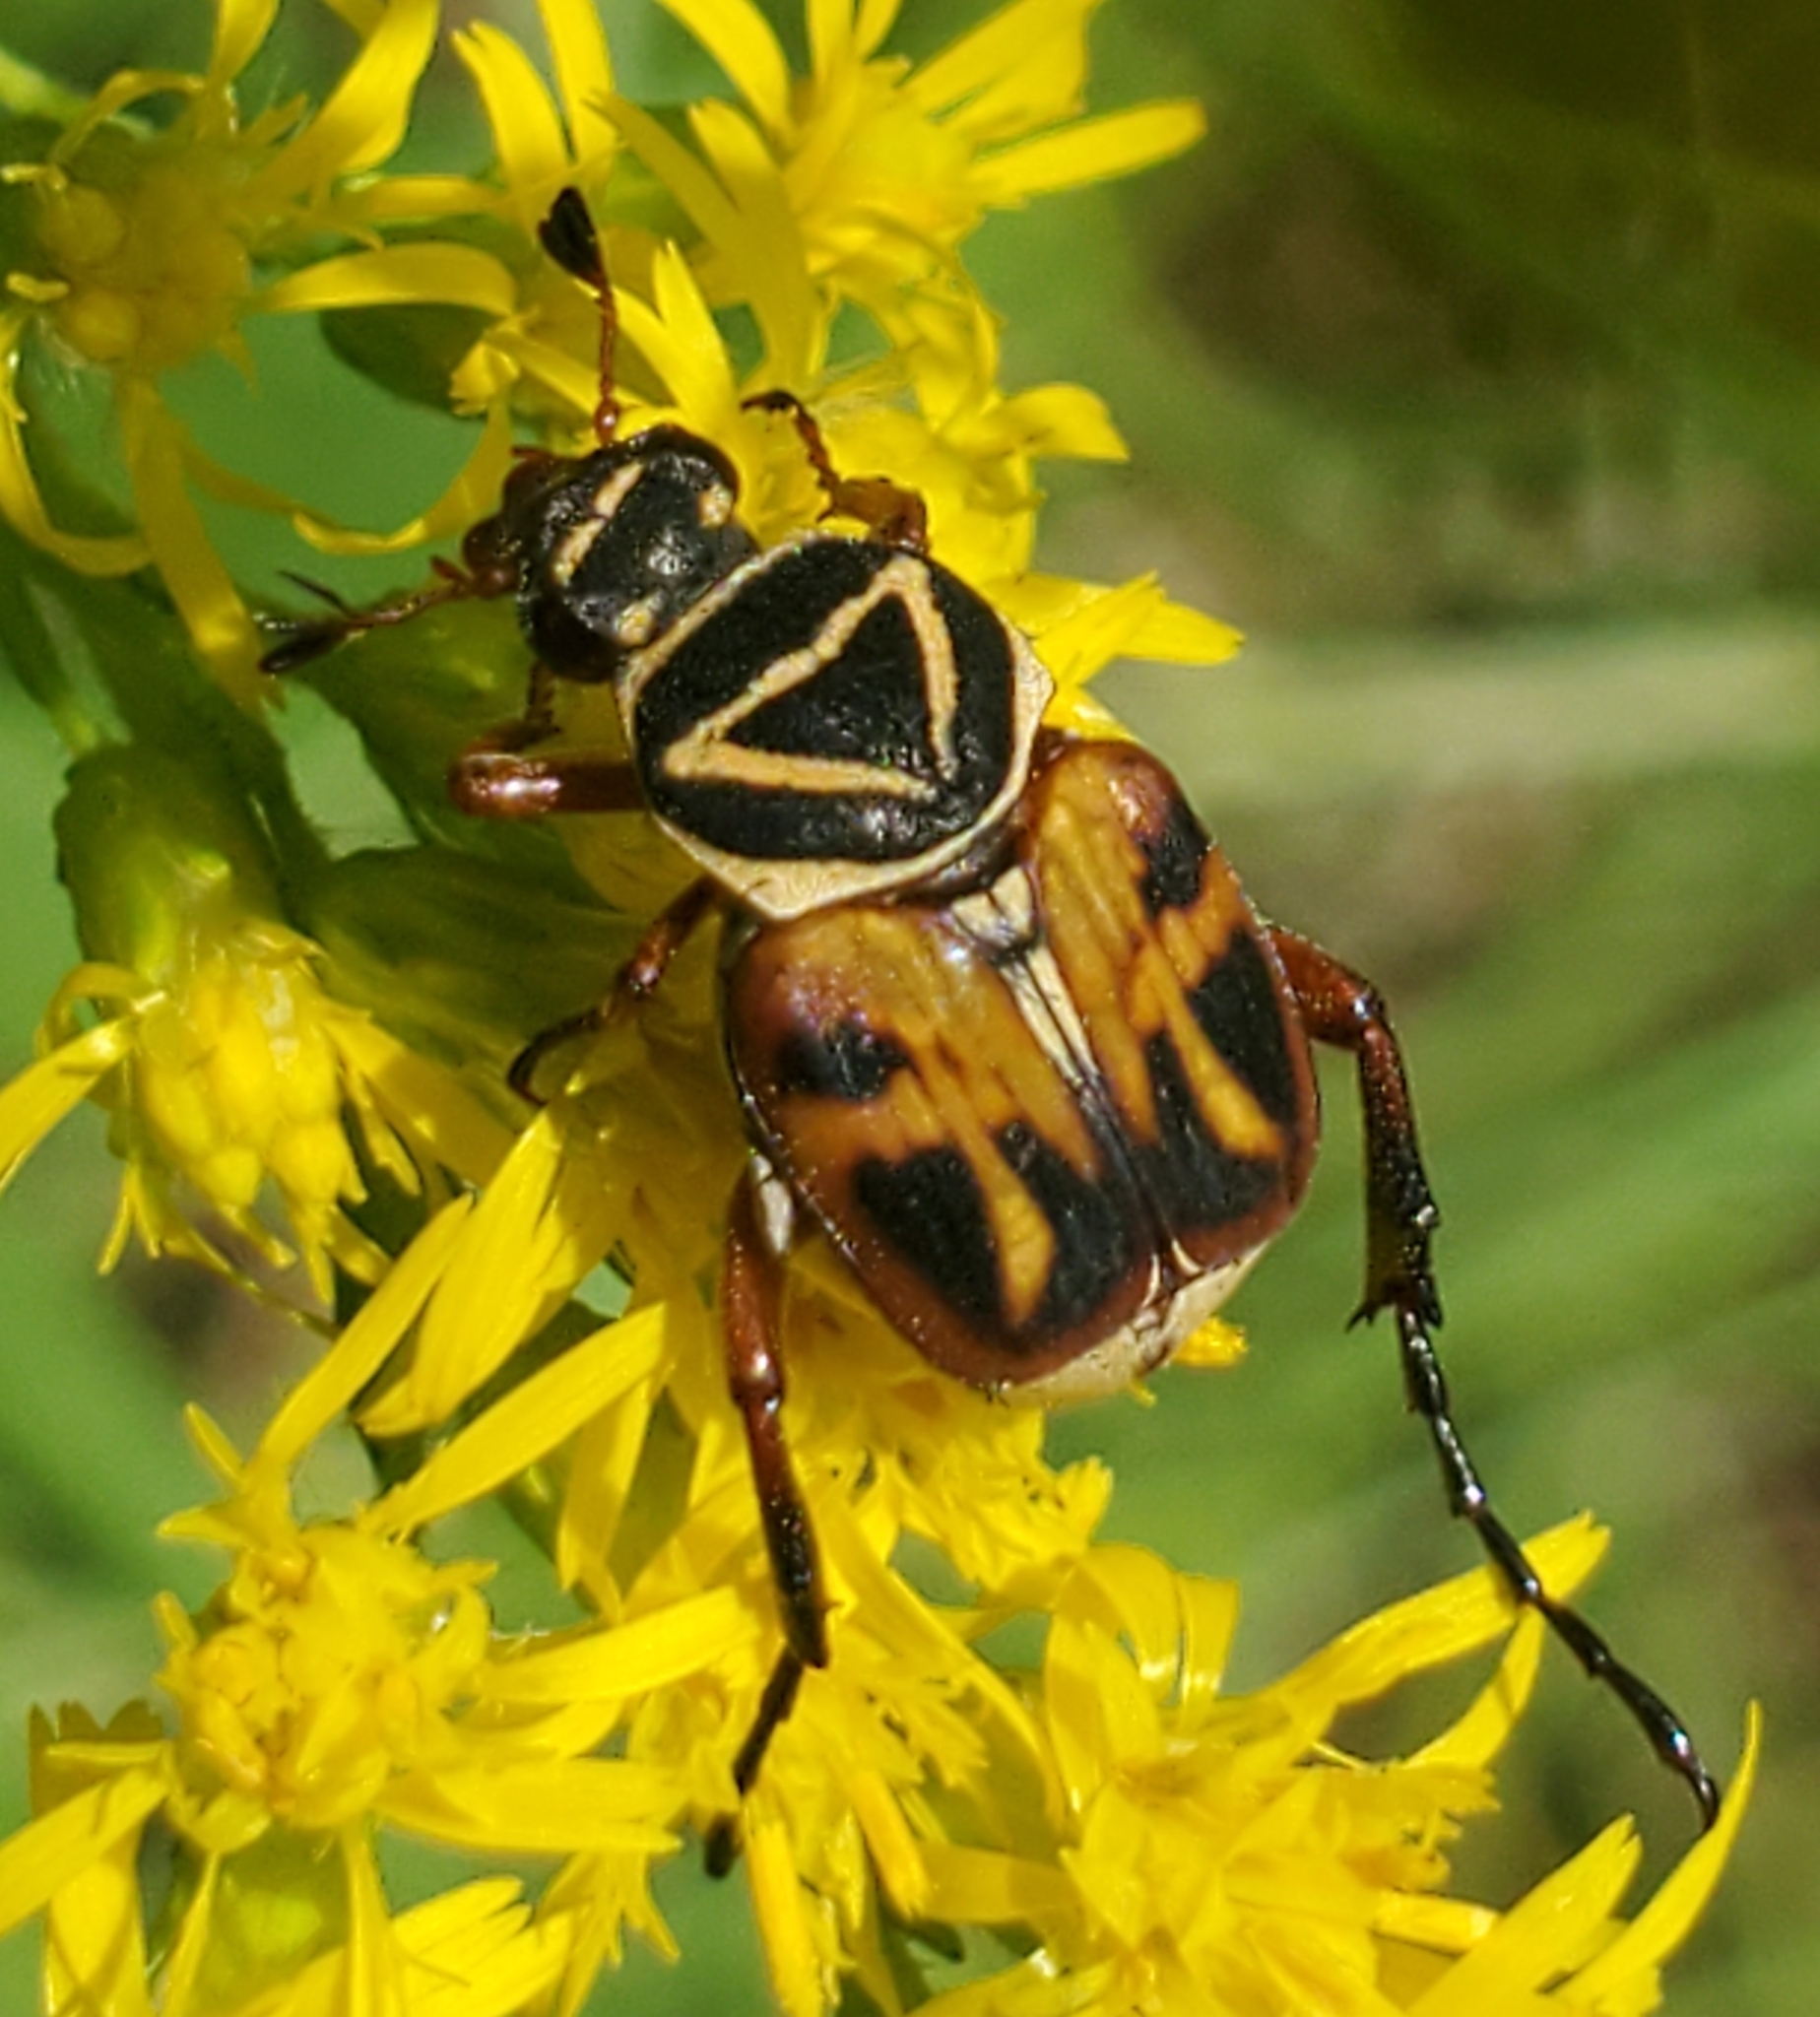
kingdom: Animalia
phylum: Arthropoda
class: Insecta
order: Coleoptera
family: Scarabaeidae
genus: Trigonopeltastes
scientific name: Trigonopeltastes delta
